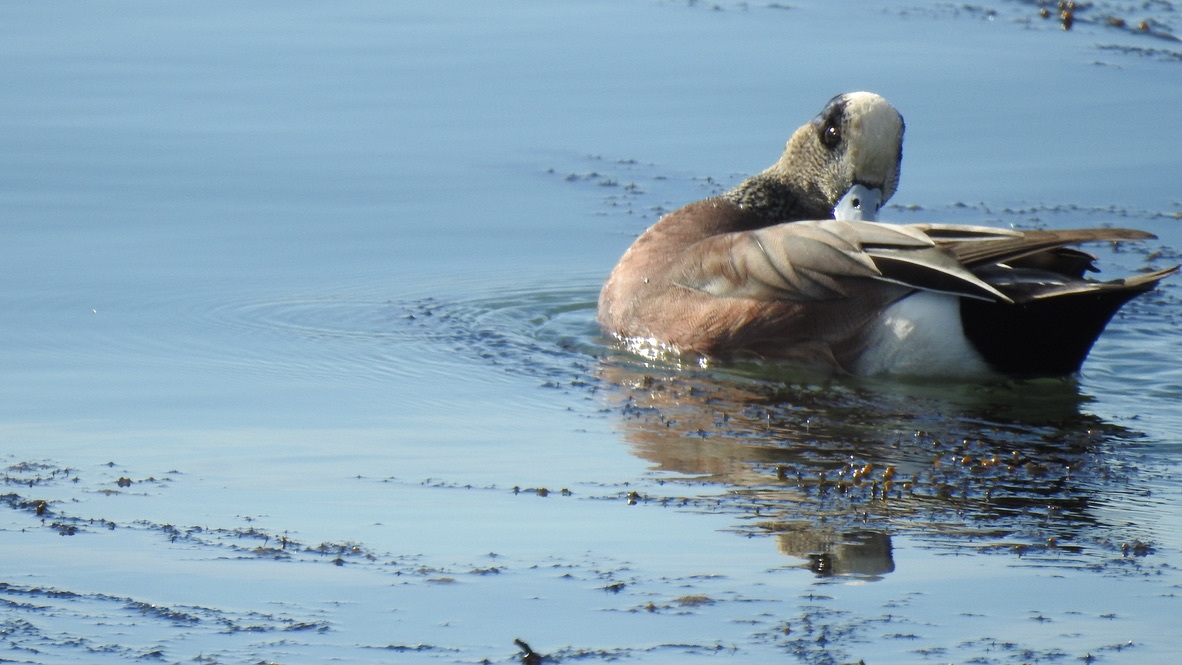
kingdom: Animalia
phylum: Chordata
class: Aves
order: Anseriformes
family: Anatidae
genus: Mareca
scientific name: Mareca americana
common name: American wigeon
